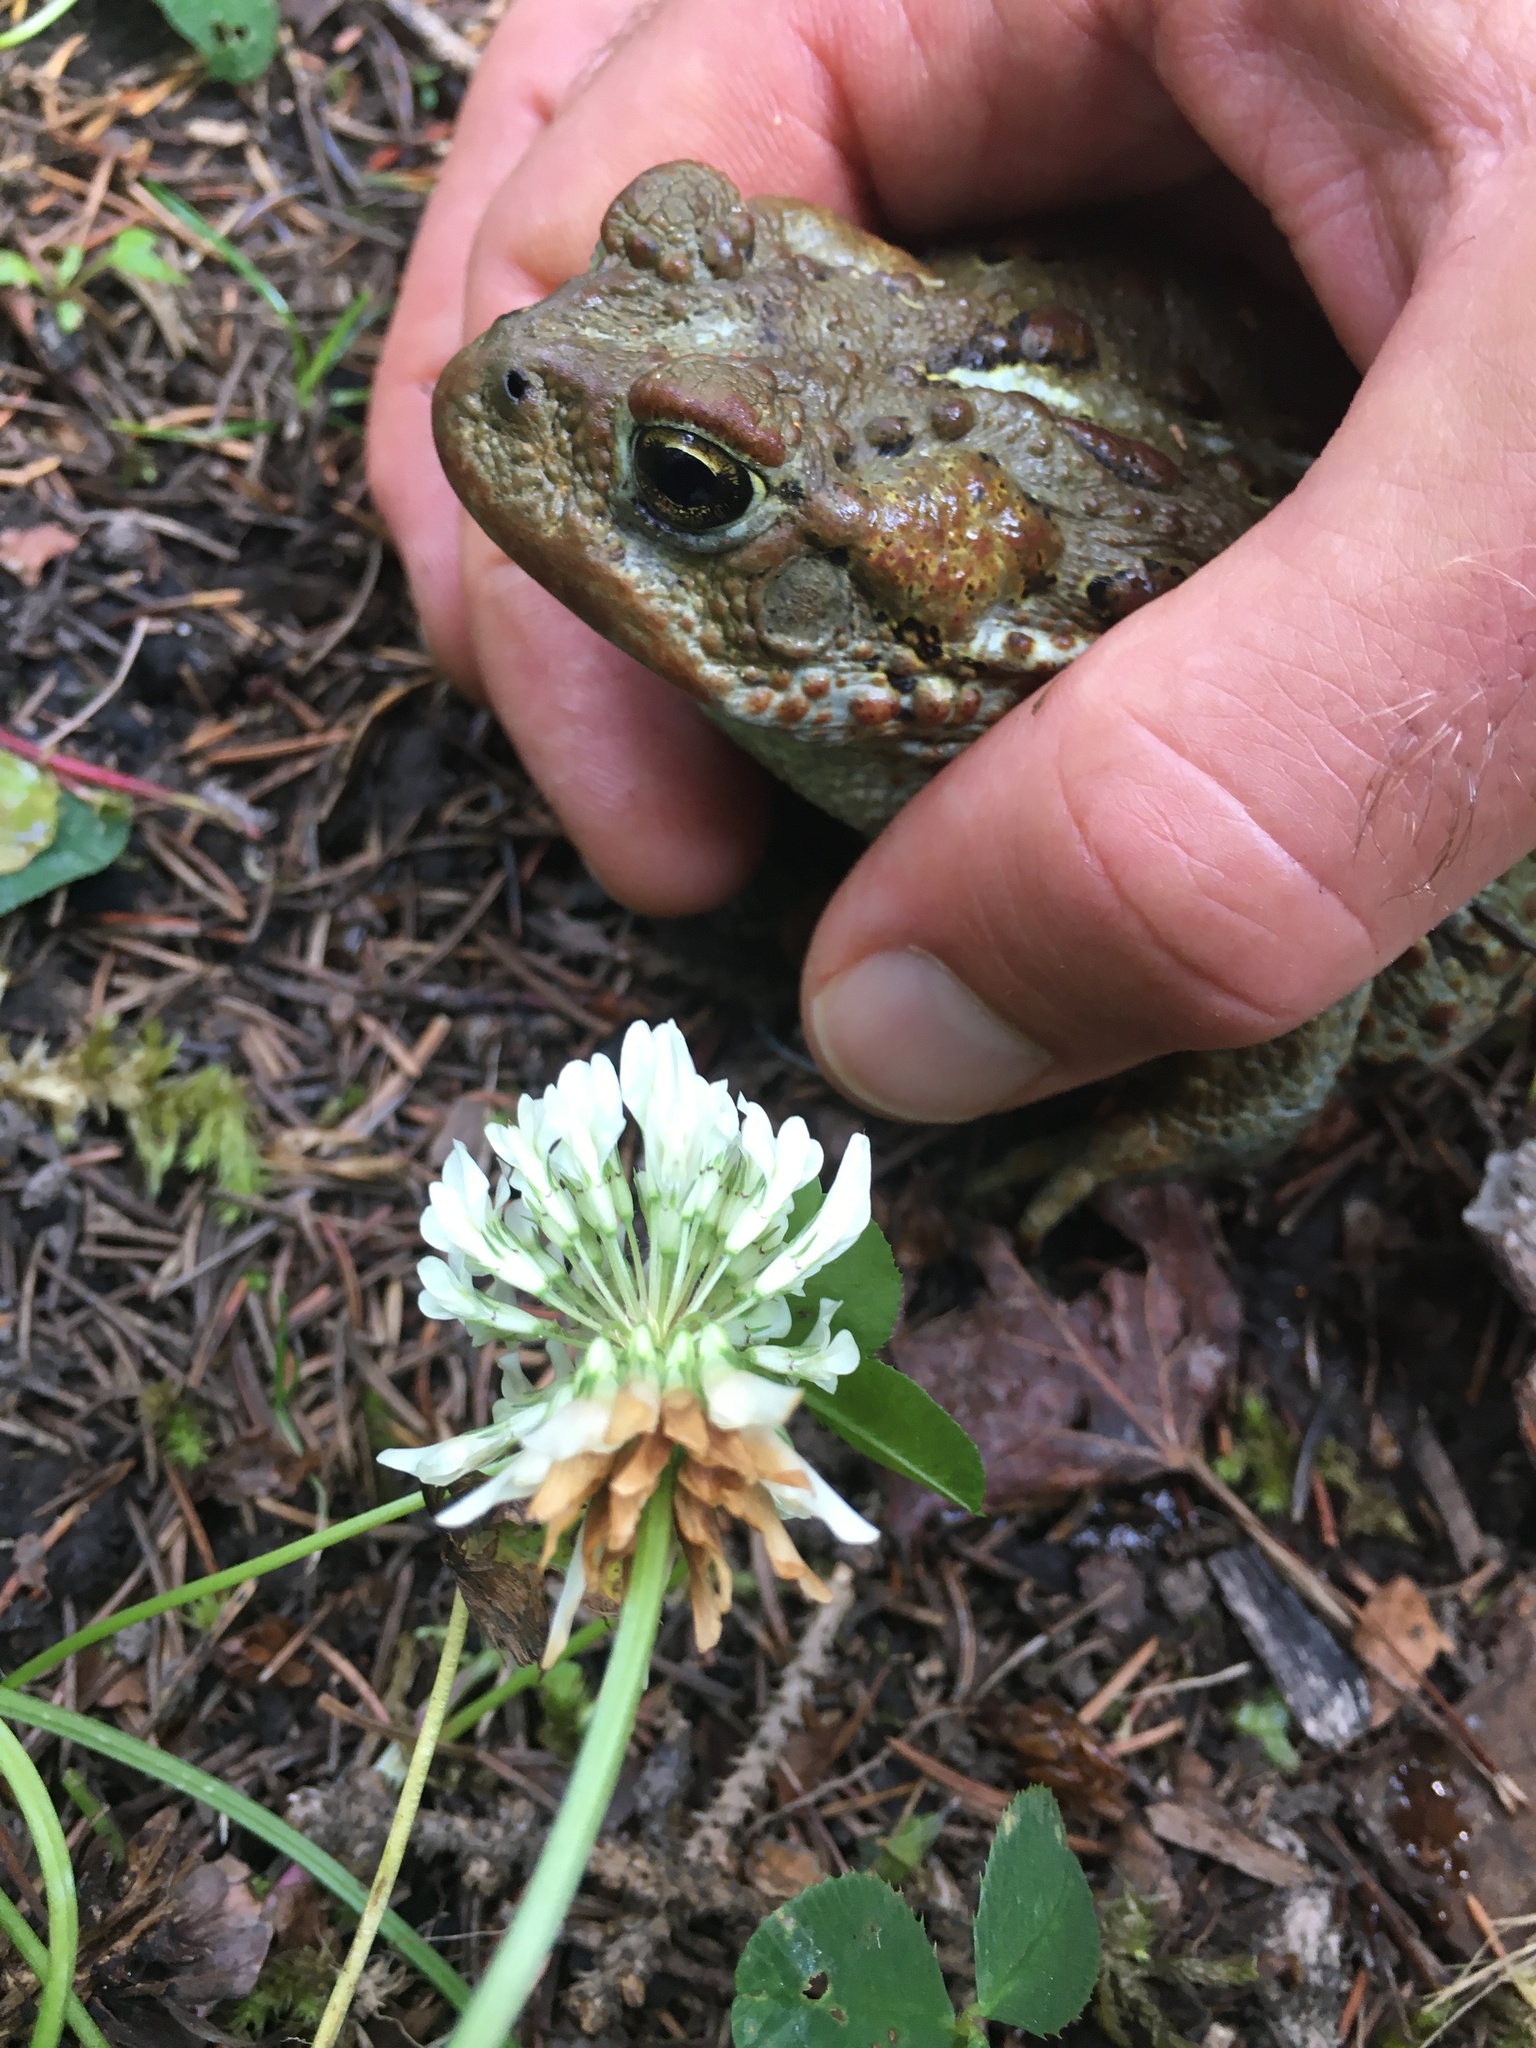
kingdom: Animalia
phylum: Chordata
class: Amphibia
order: Anura
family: Bufonidae
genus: Anaxyrus
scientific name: Anaxyrus boreas
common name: Western toad
